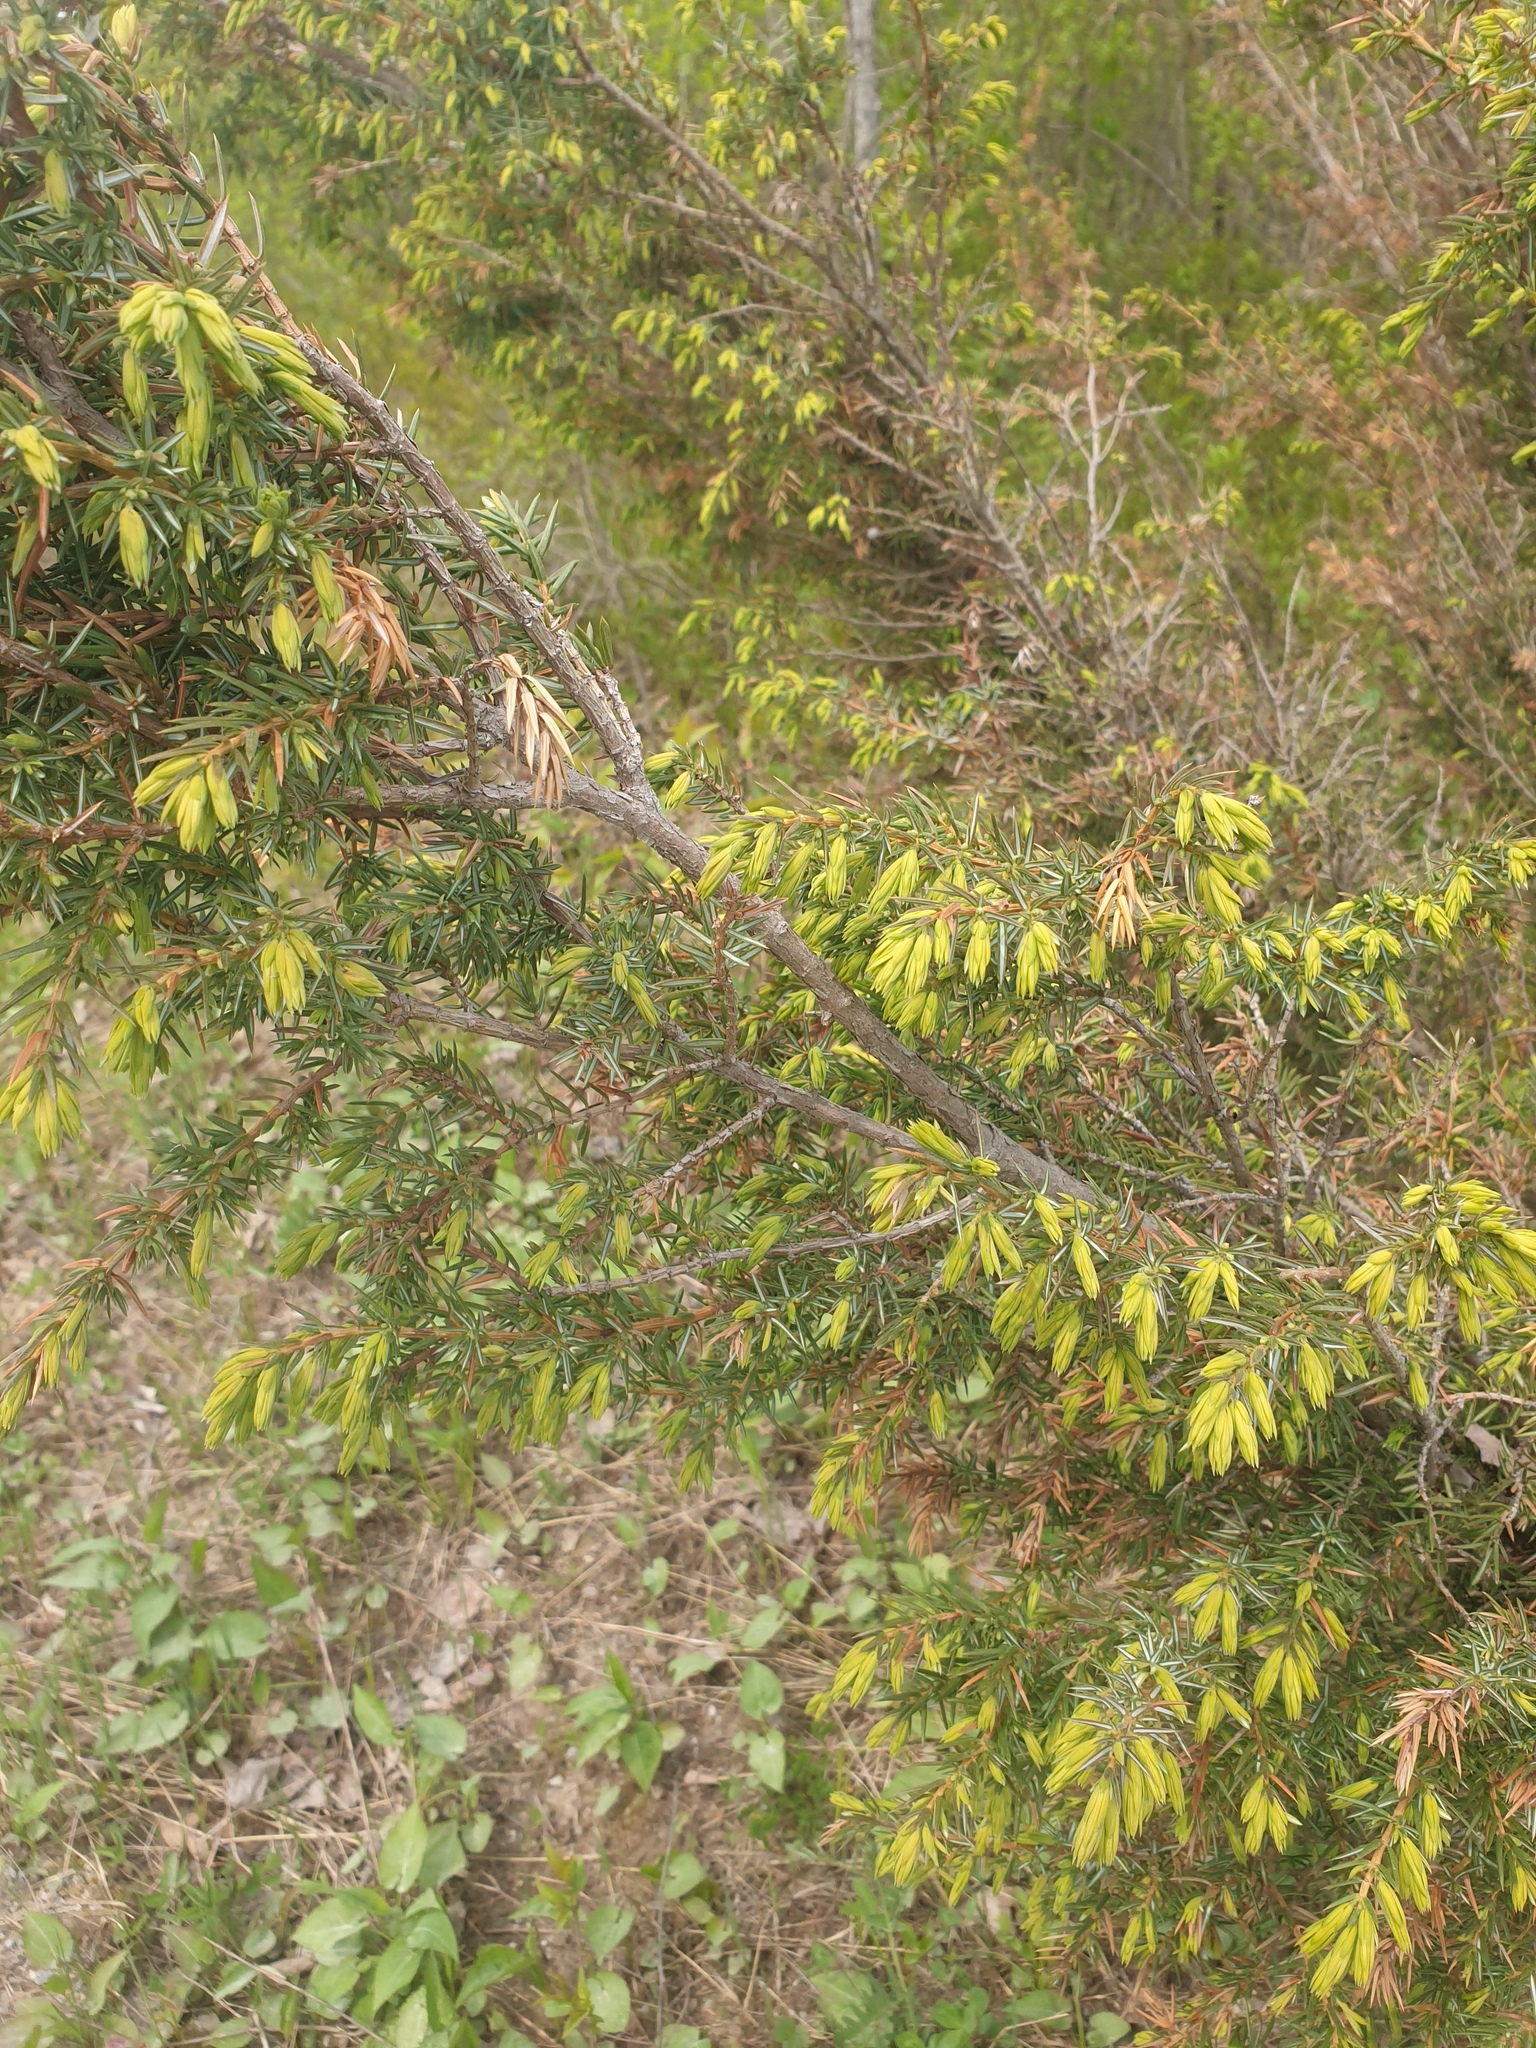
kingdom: Plantae
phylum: Tracheophyta
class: Pinopsida
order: Pinales
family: Cupressaceae
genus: Juniperus
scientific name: Juniperus communis
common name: Common juniper
